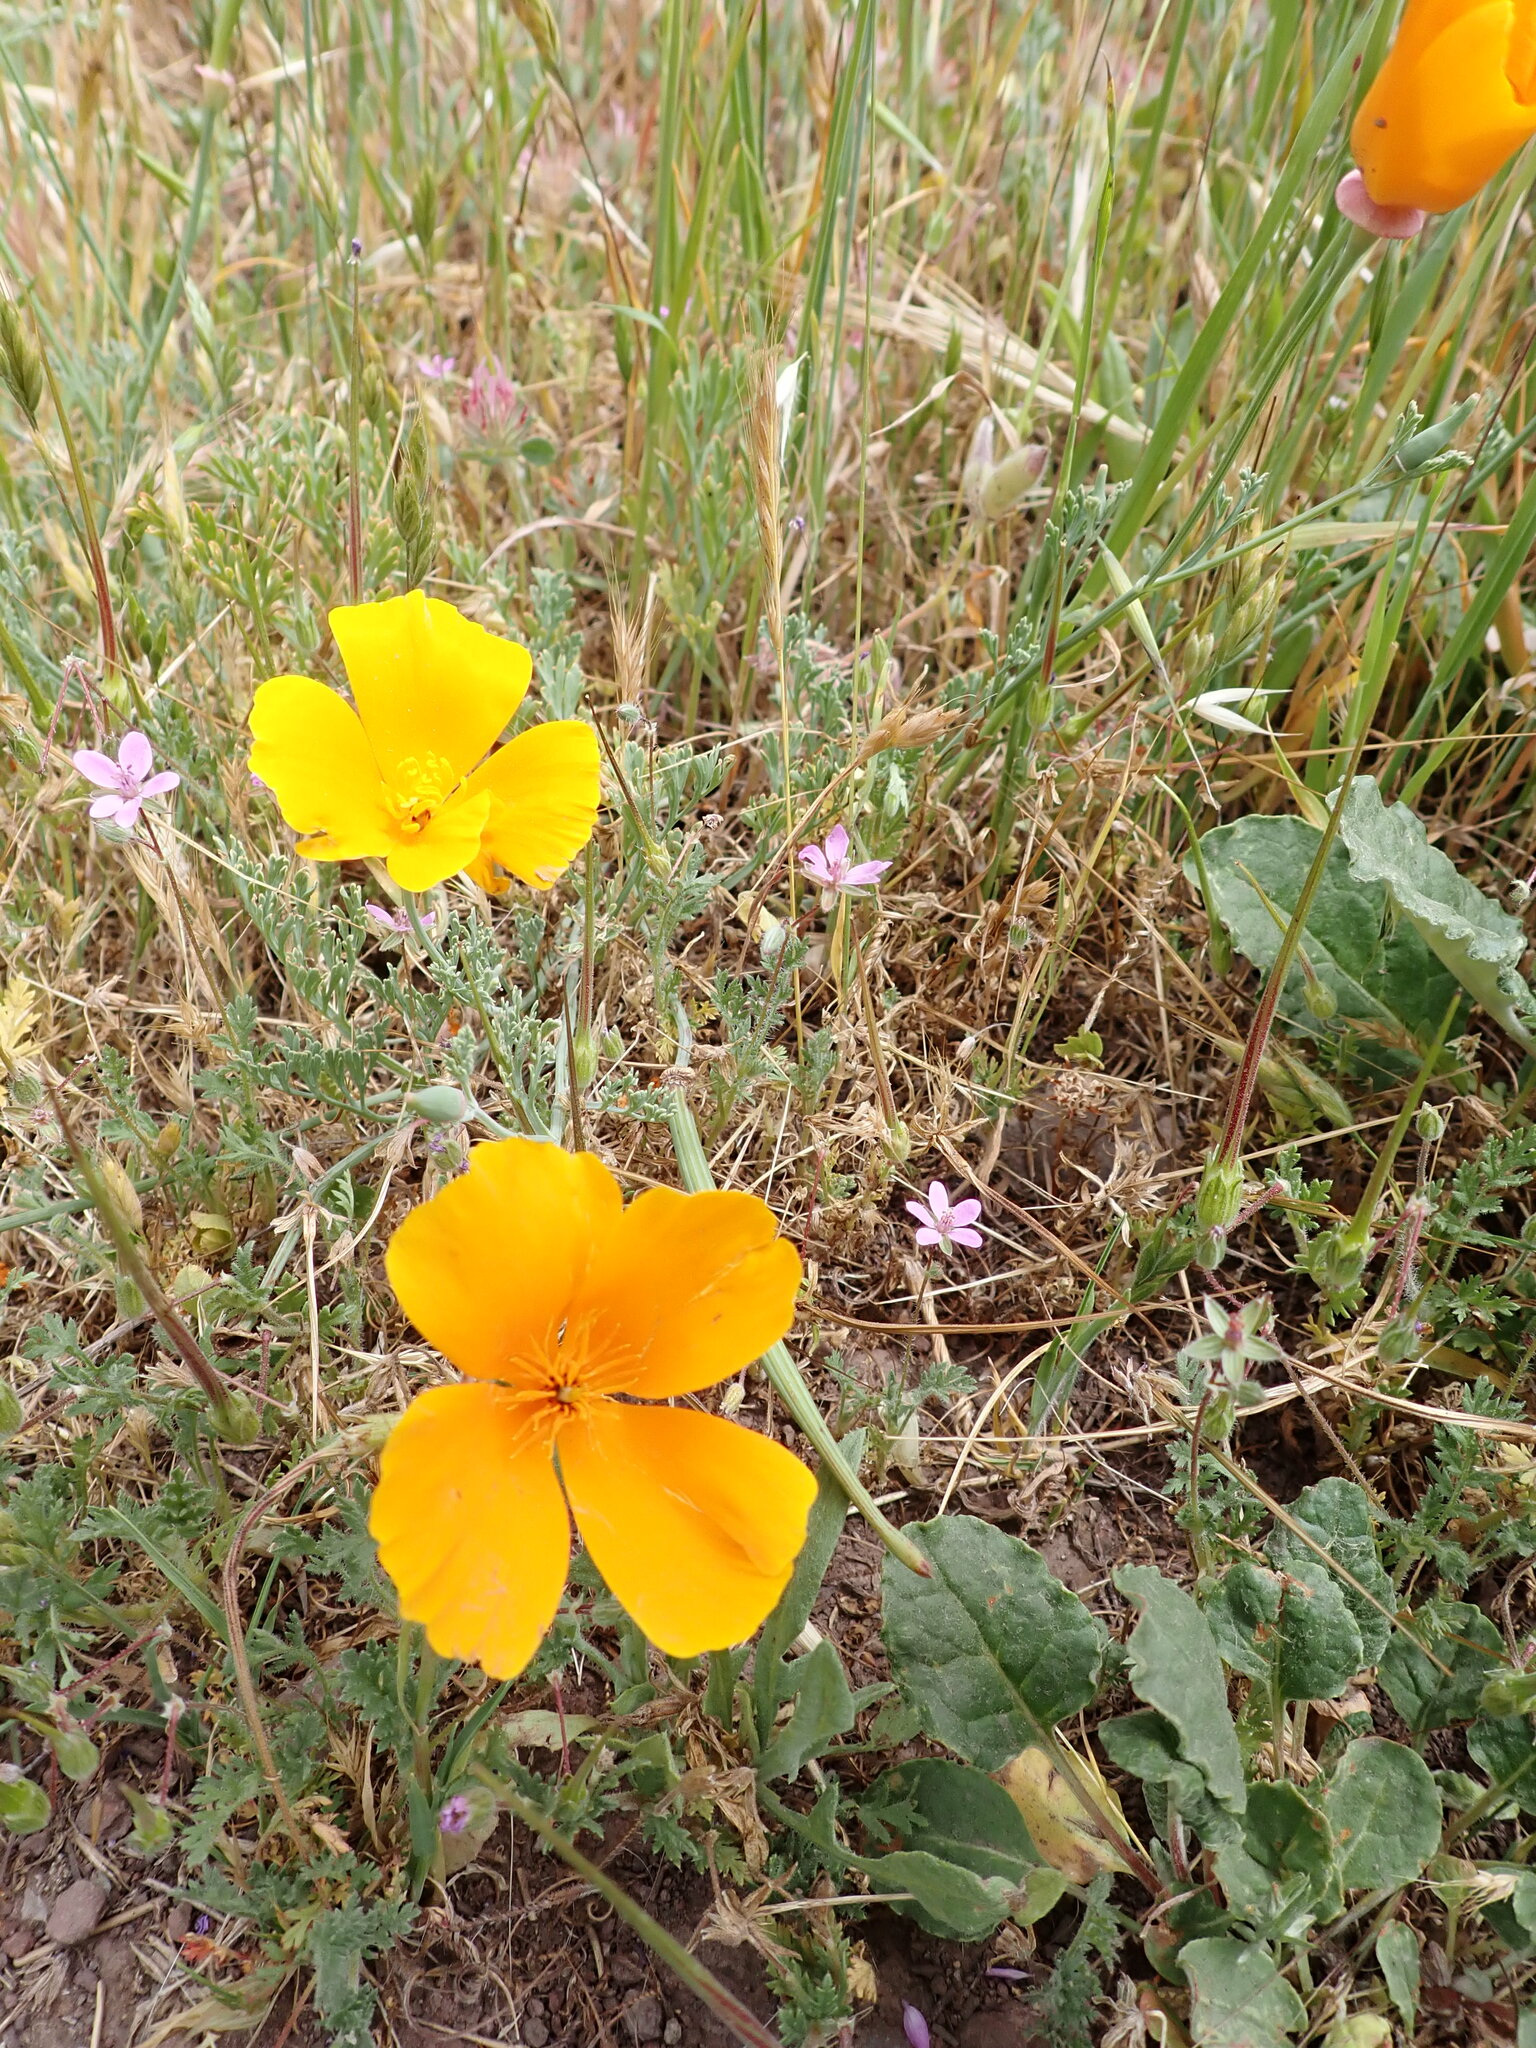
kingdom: Plantae
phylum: Tracheophyta
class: Magnoliopsida
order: Ranunculales
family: Papaveraceae
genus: Eschscholzia
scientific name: Eschscholzia californica
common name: California poppy
